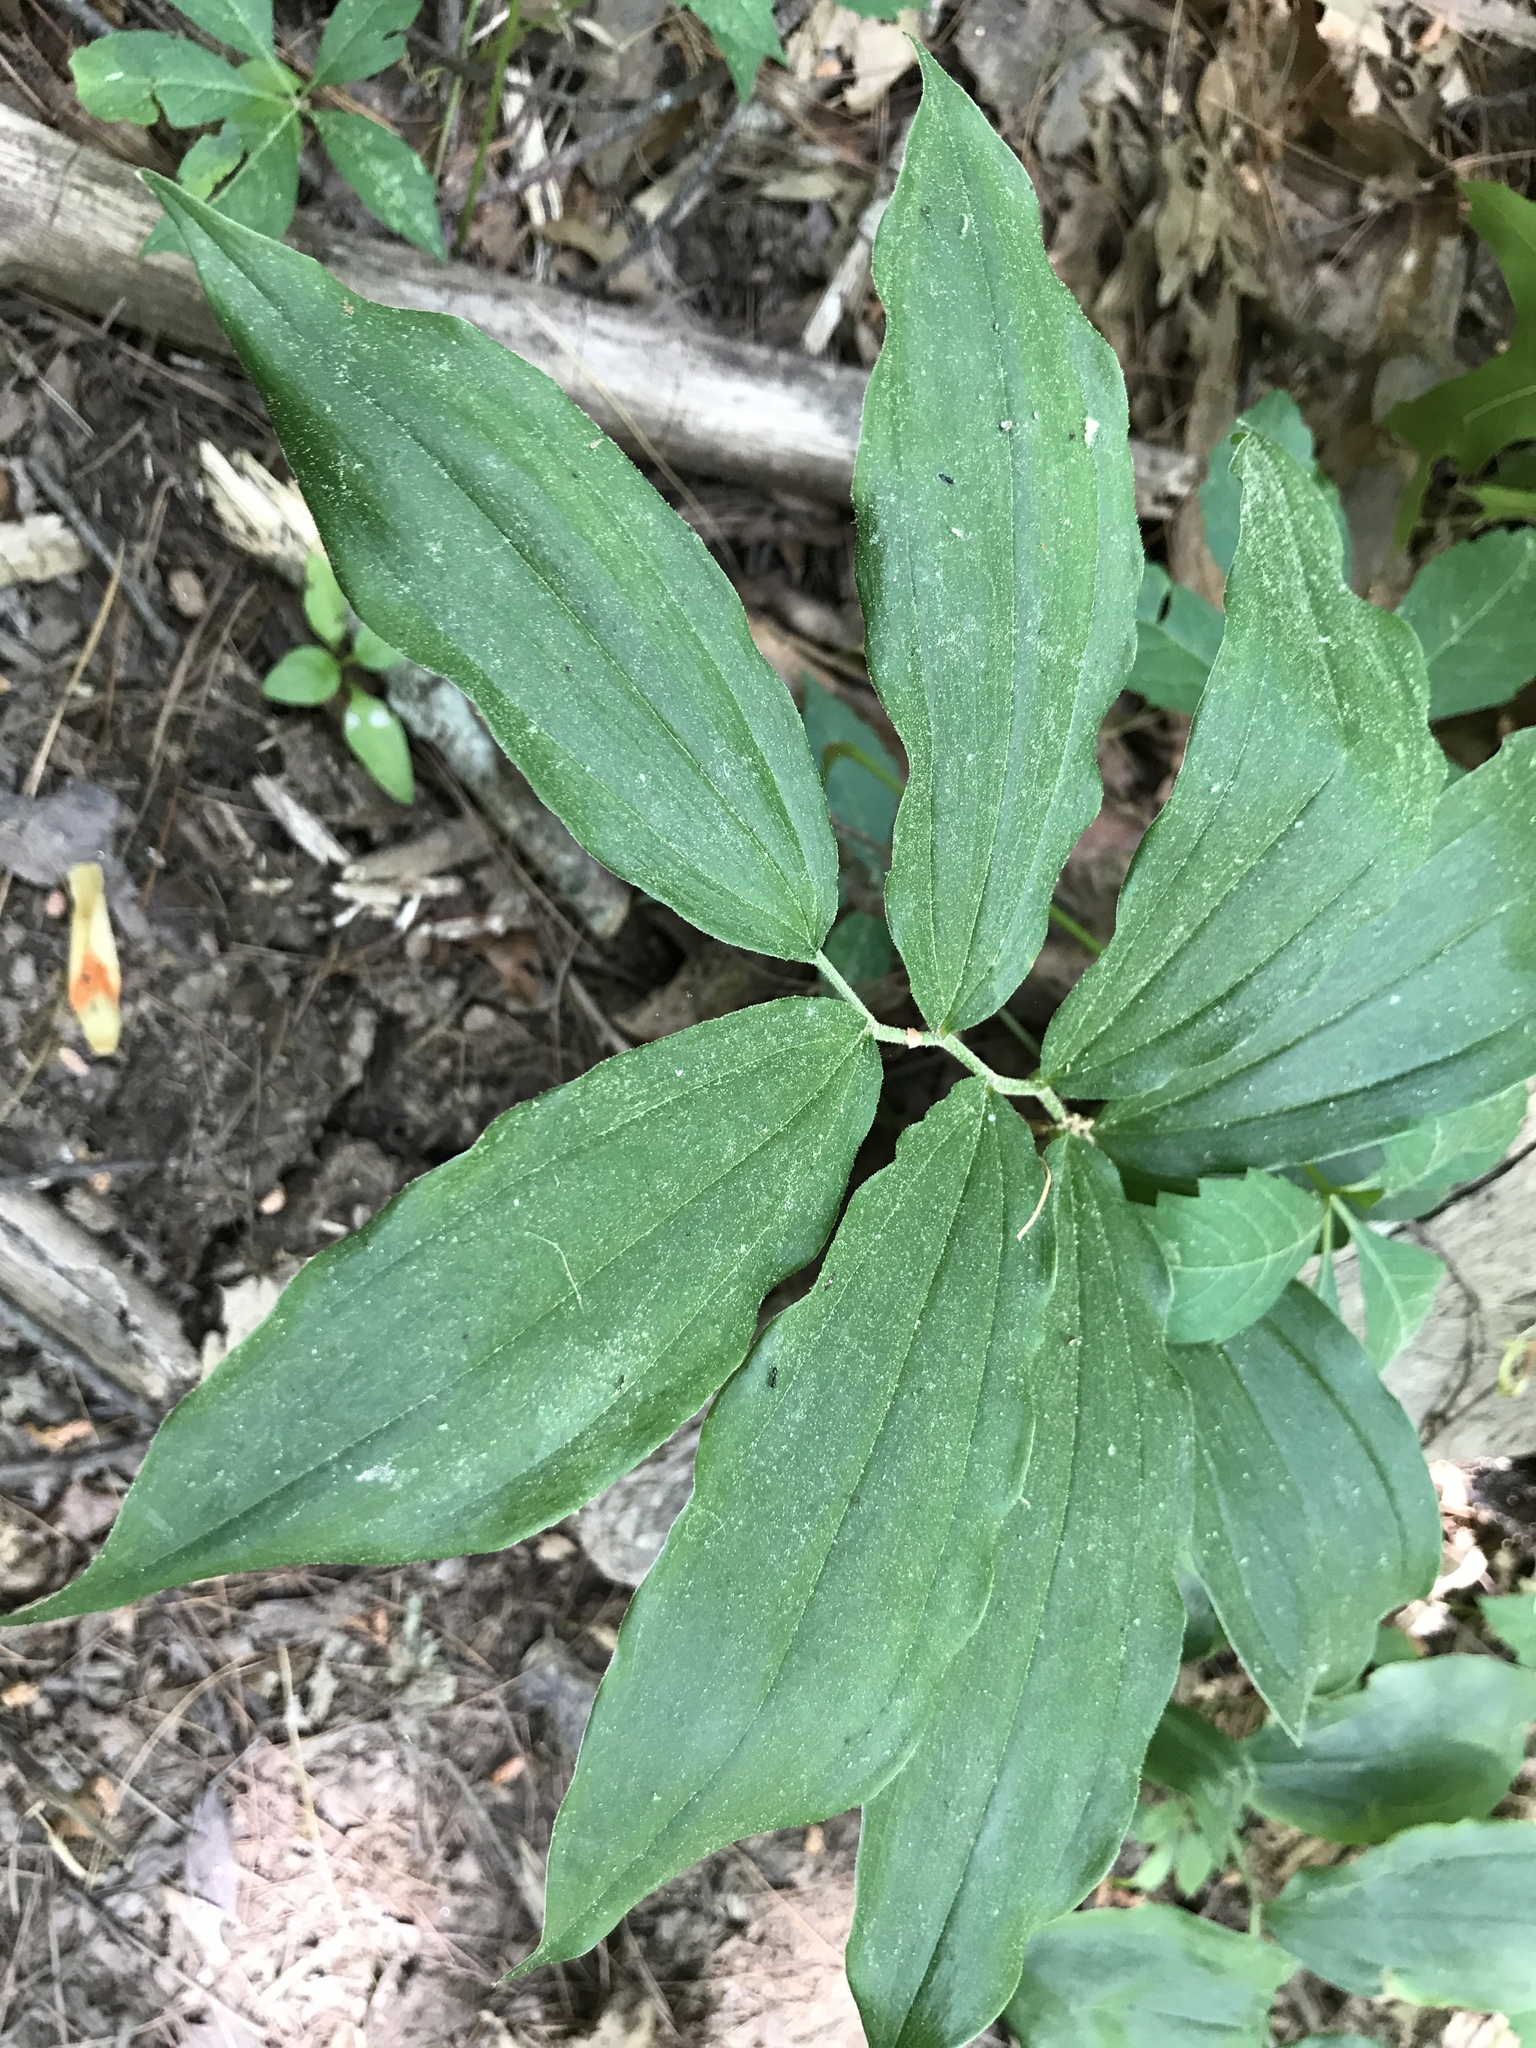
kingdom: Plantae
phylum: Tracheophyta
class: Liliopsida
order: Asparagales
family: Asparagaceae
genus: Maianthemum
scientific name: Maianthemum racemosum
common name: False spikenard
